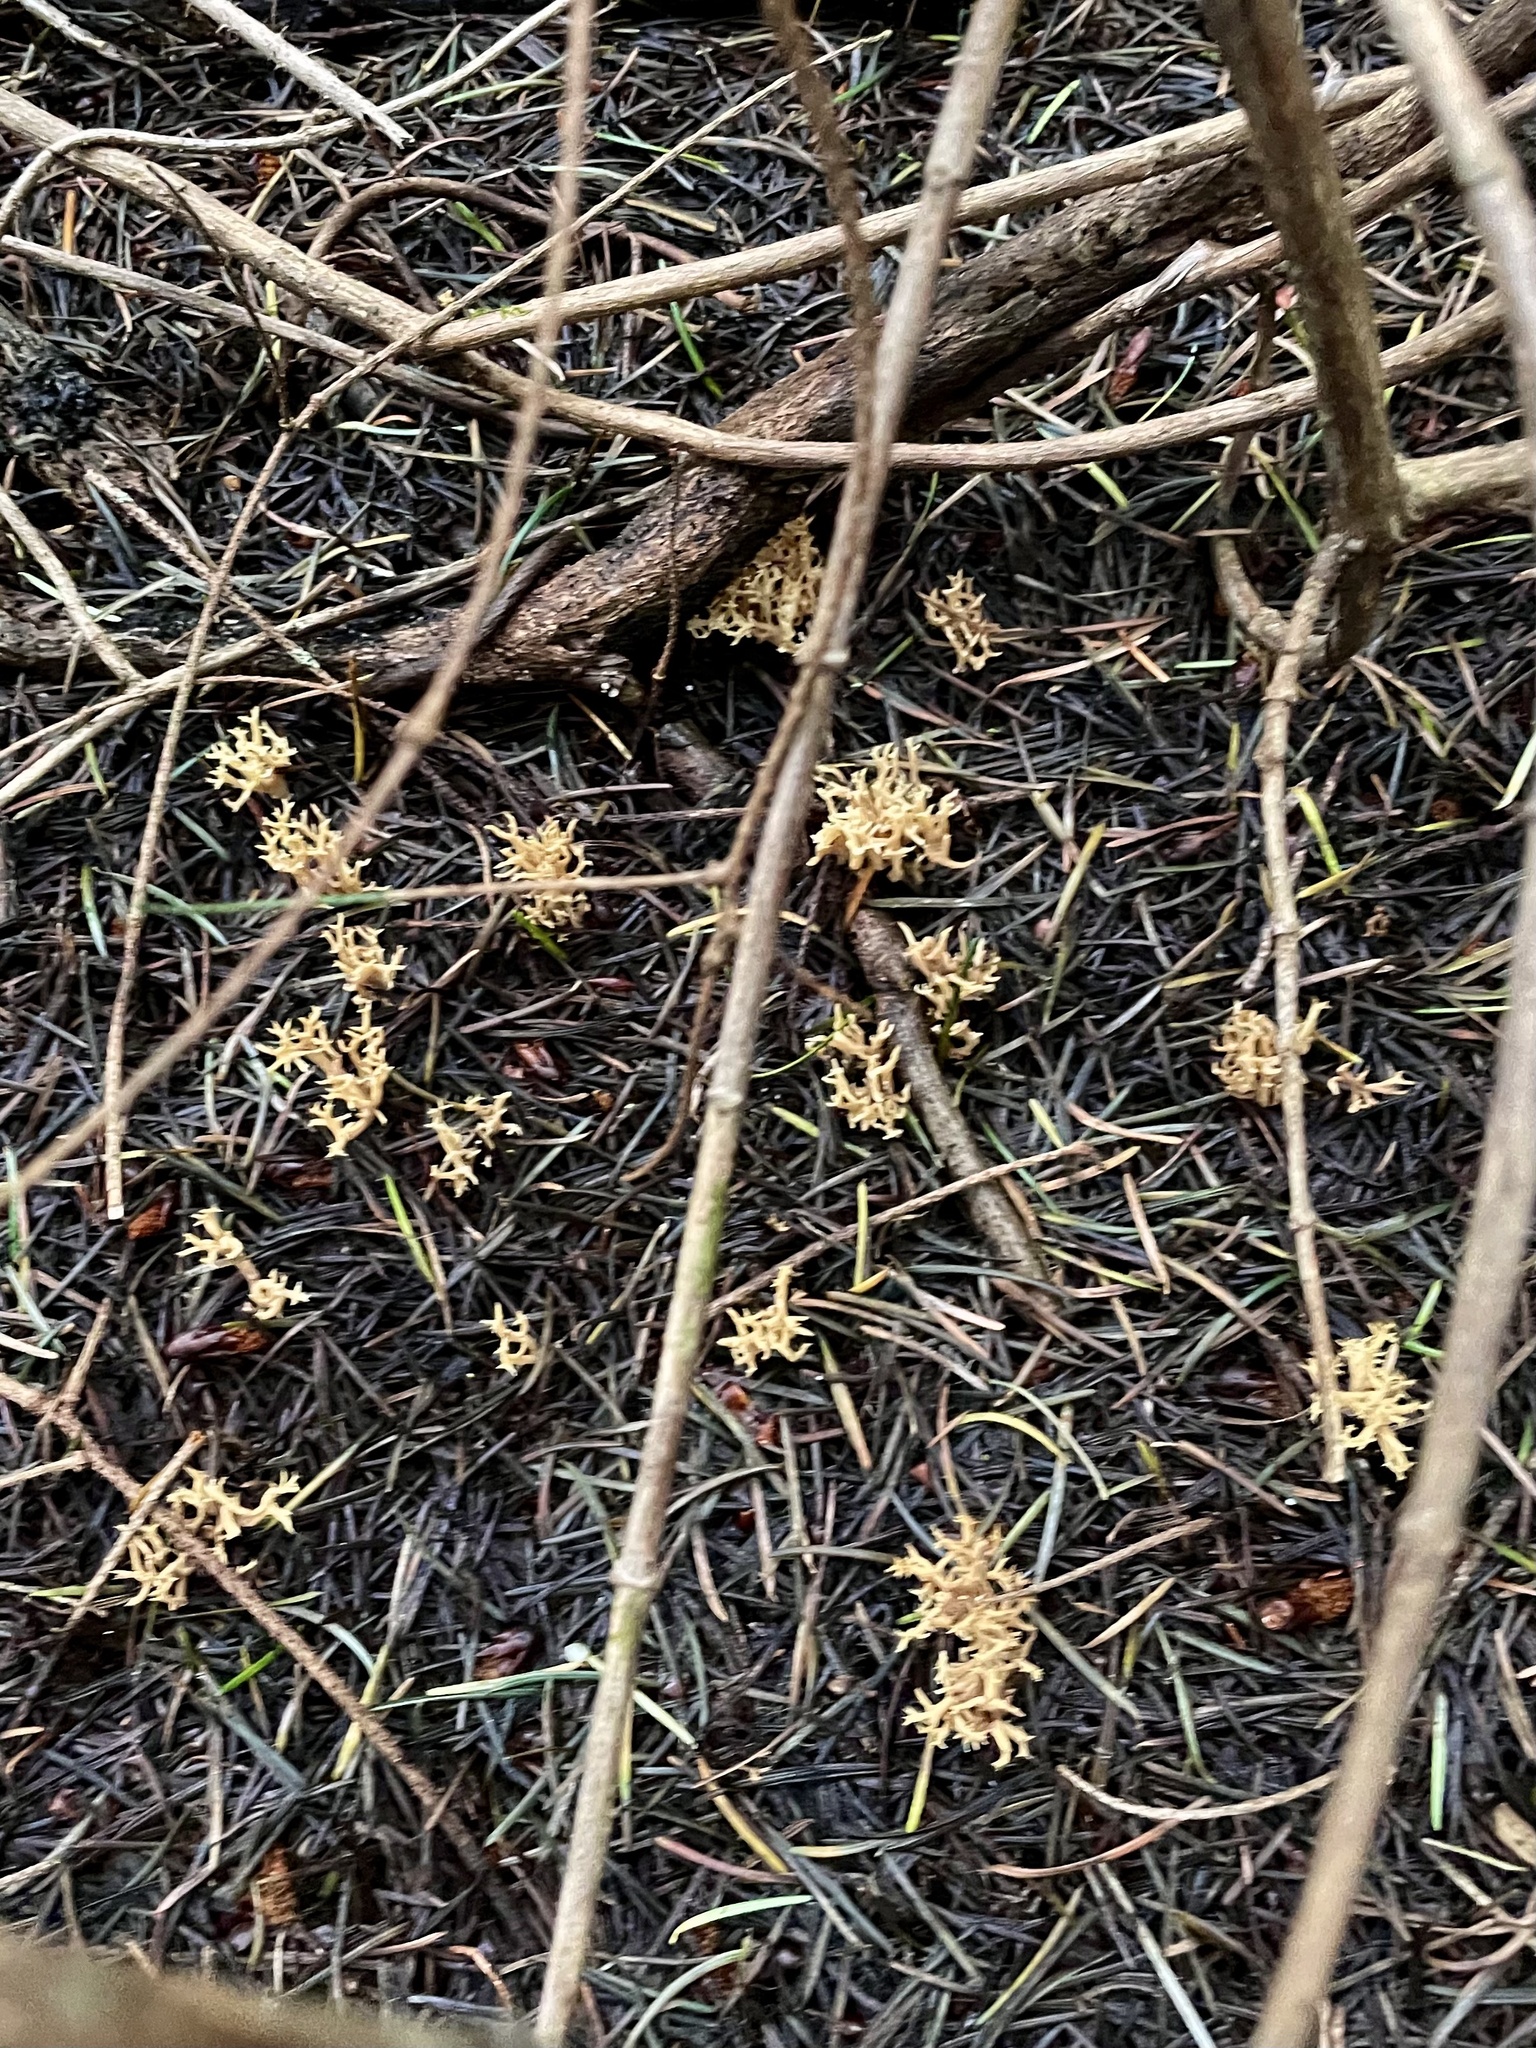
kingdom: Fungi
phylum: Basidiomycota
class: Agaricomycetes
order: Gomphales
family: Gomphaceae
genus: Phaeoclavulina
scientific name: Phaeoclavulina myceliosa
